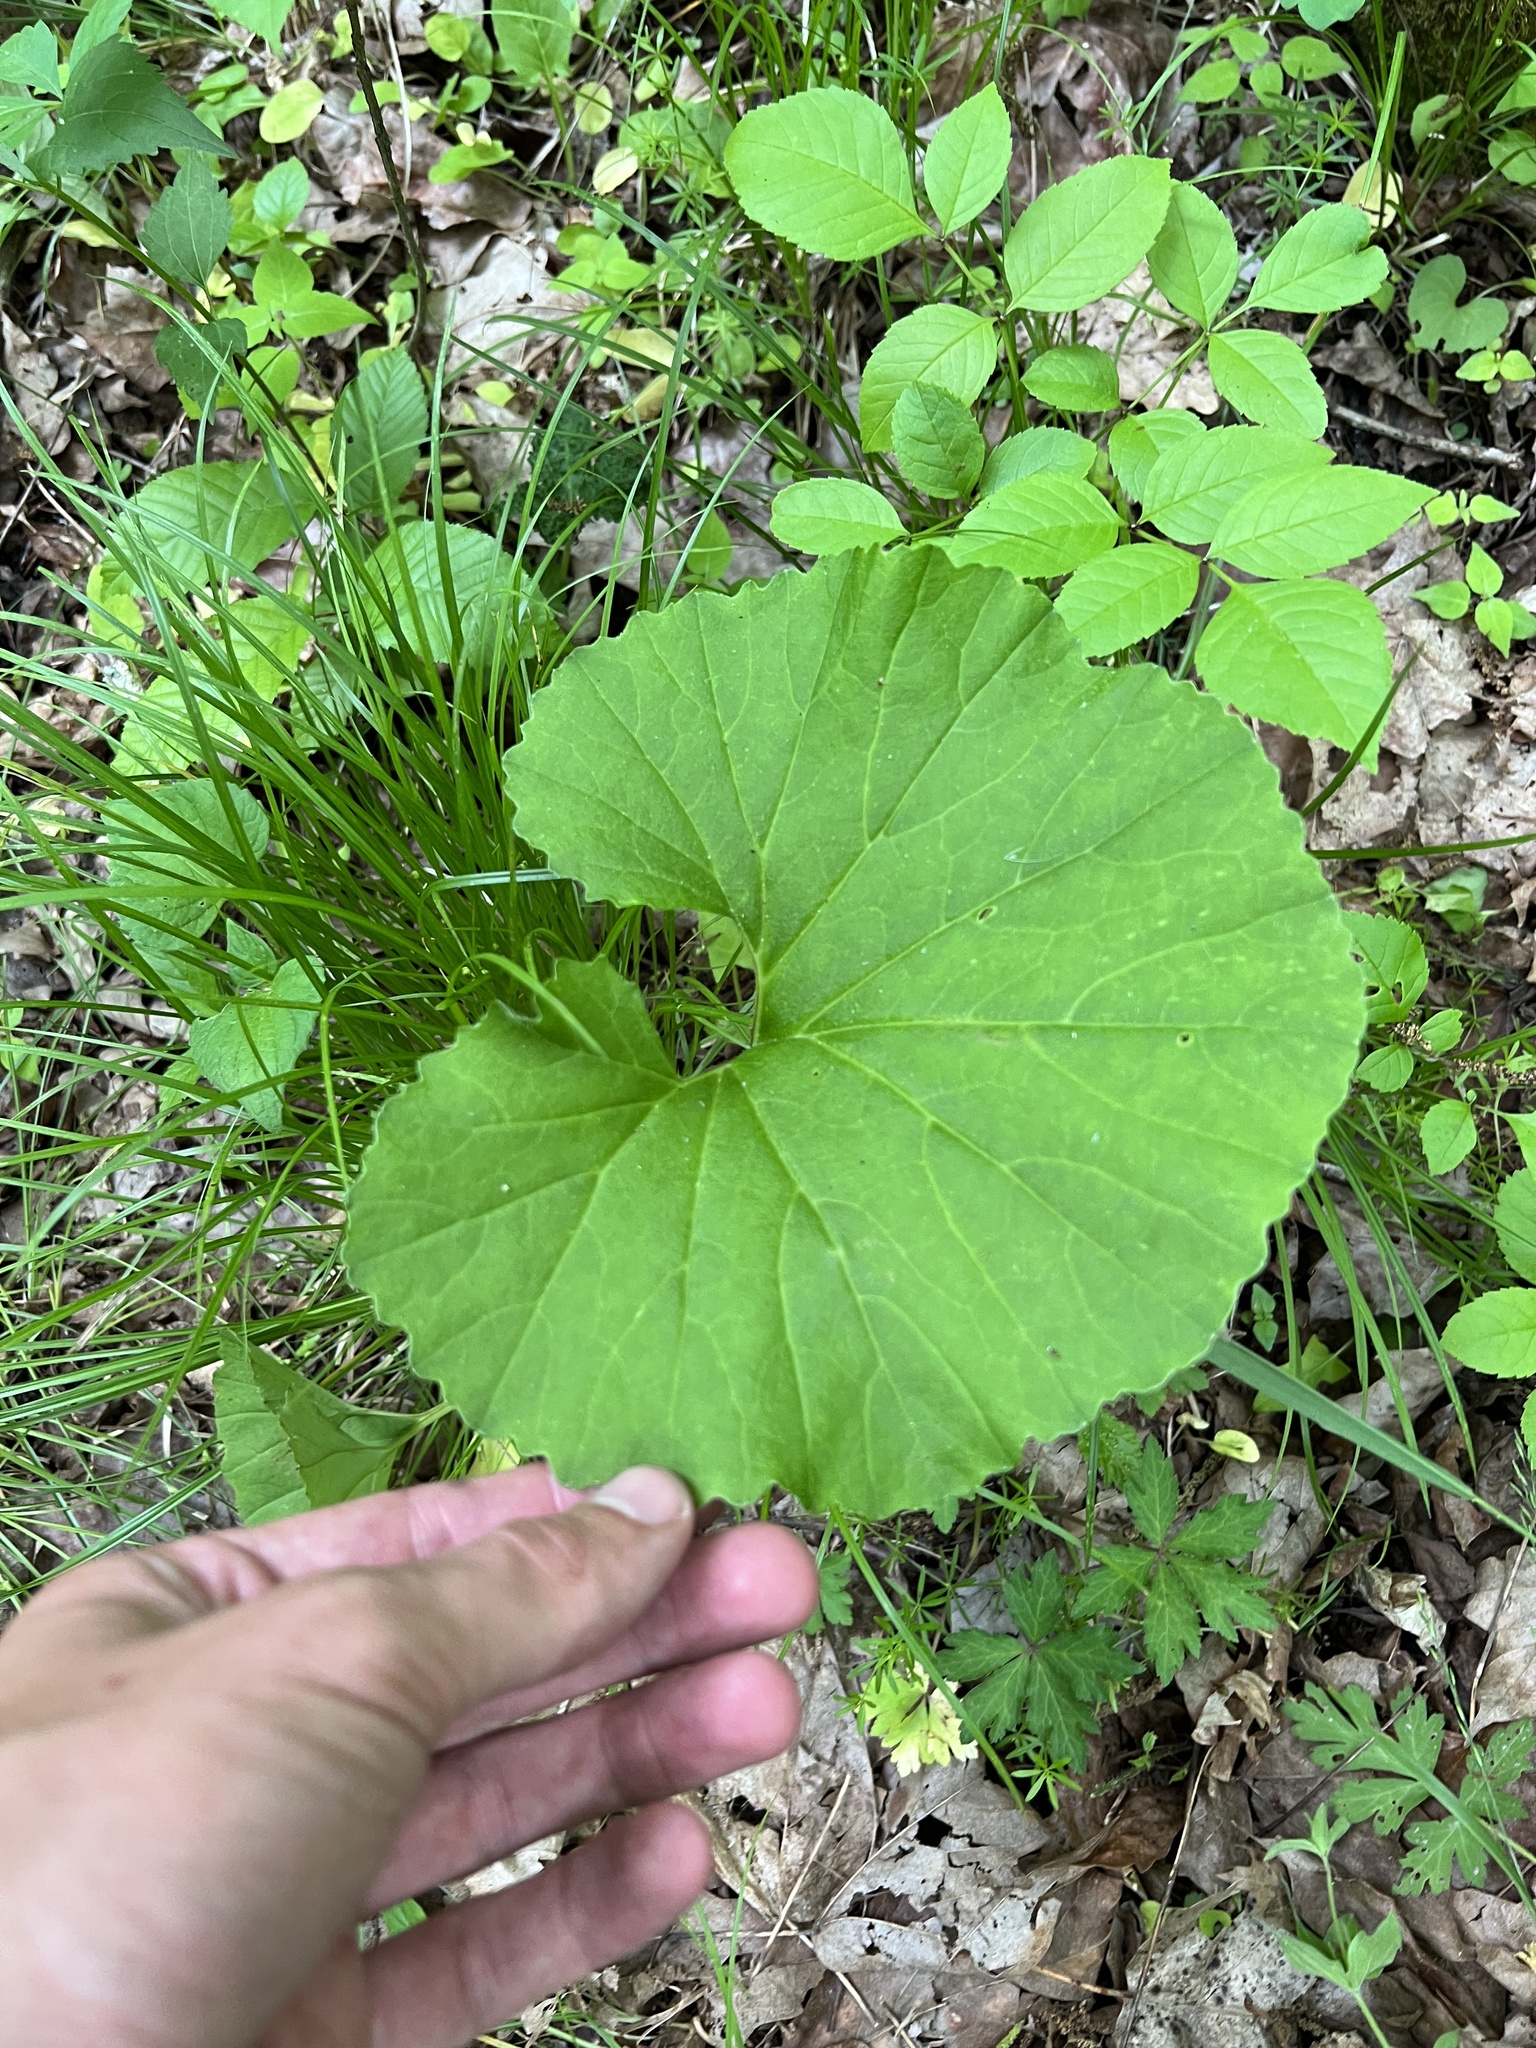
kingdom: Plantae
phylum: Tracheophyta
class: Magnoliopsida
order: Asterales
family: Asteraceae
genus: Arnoglossum
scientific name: Arnoglossum reniforme
